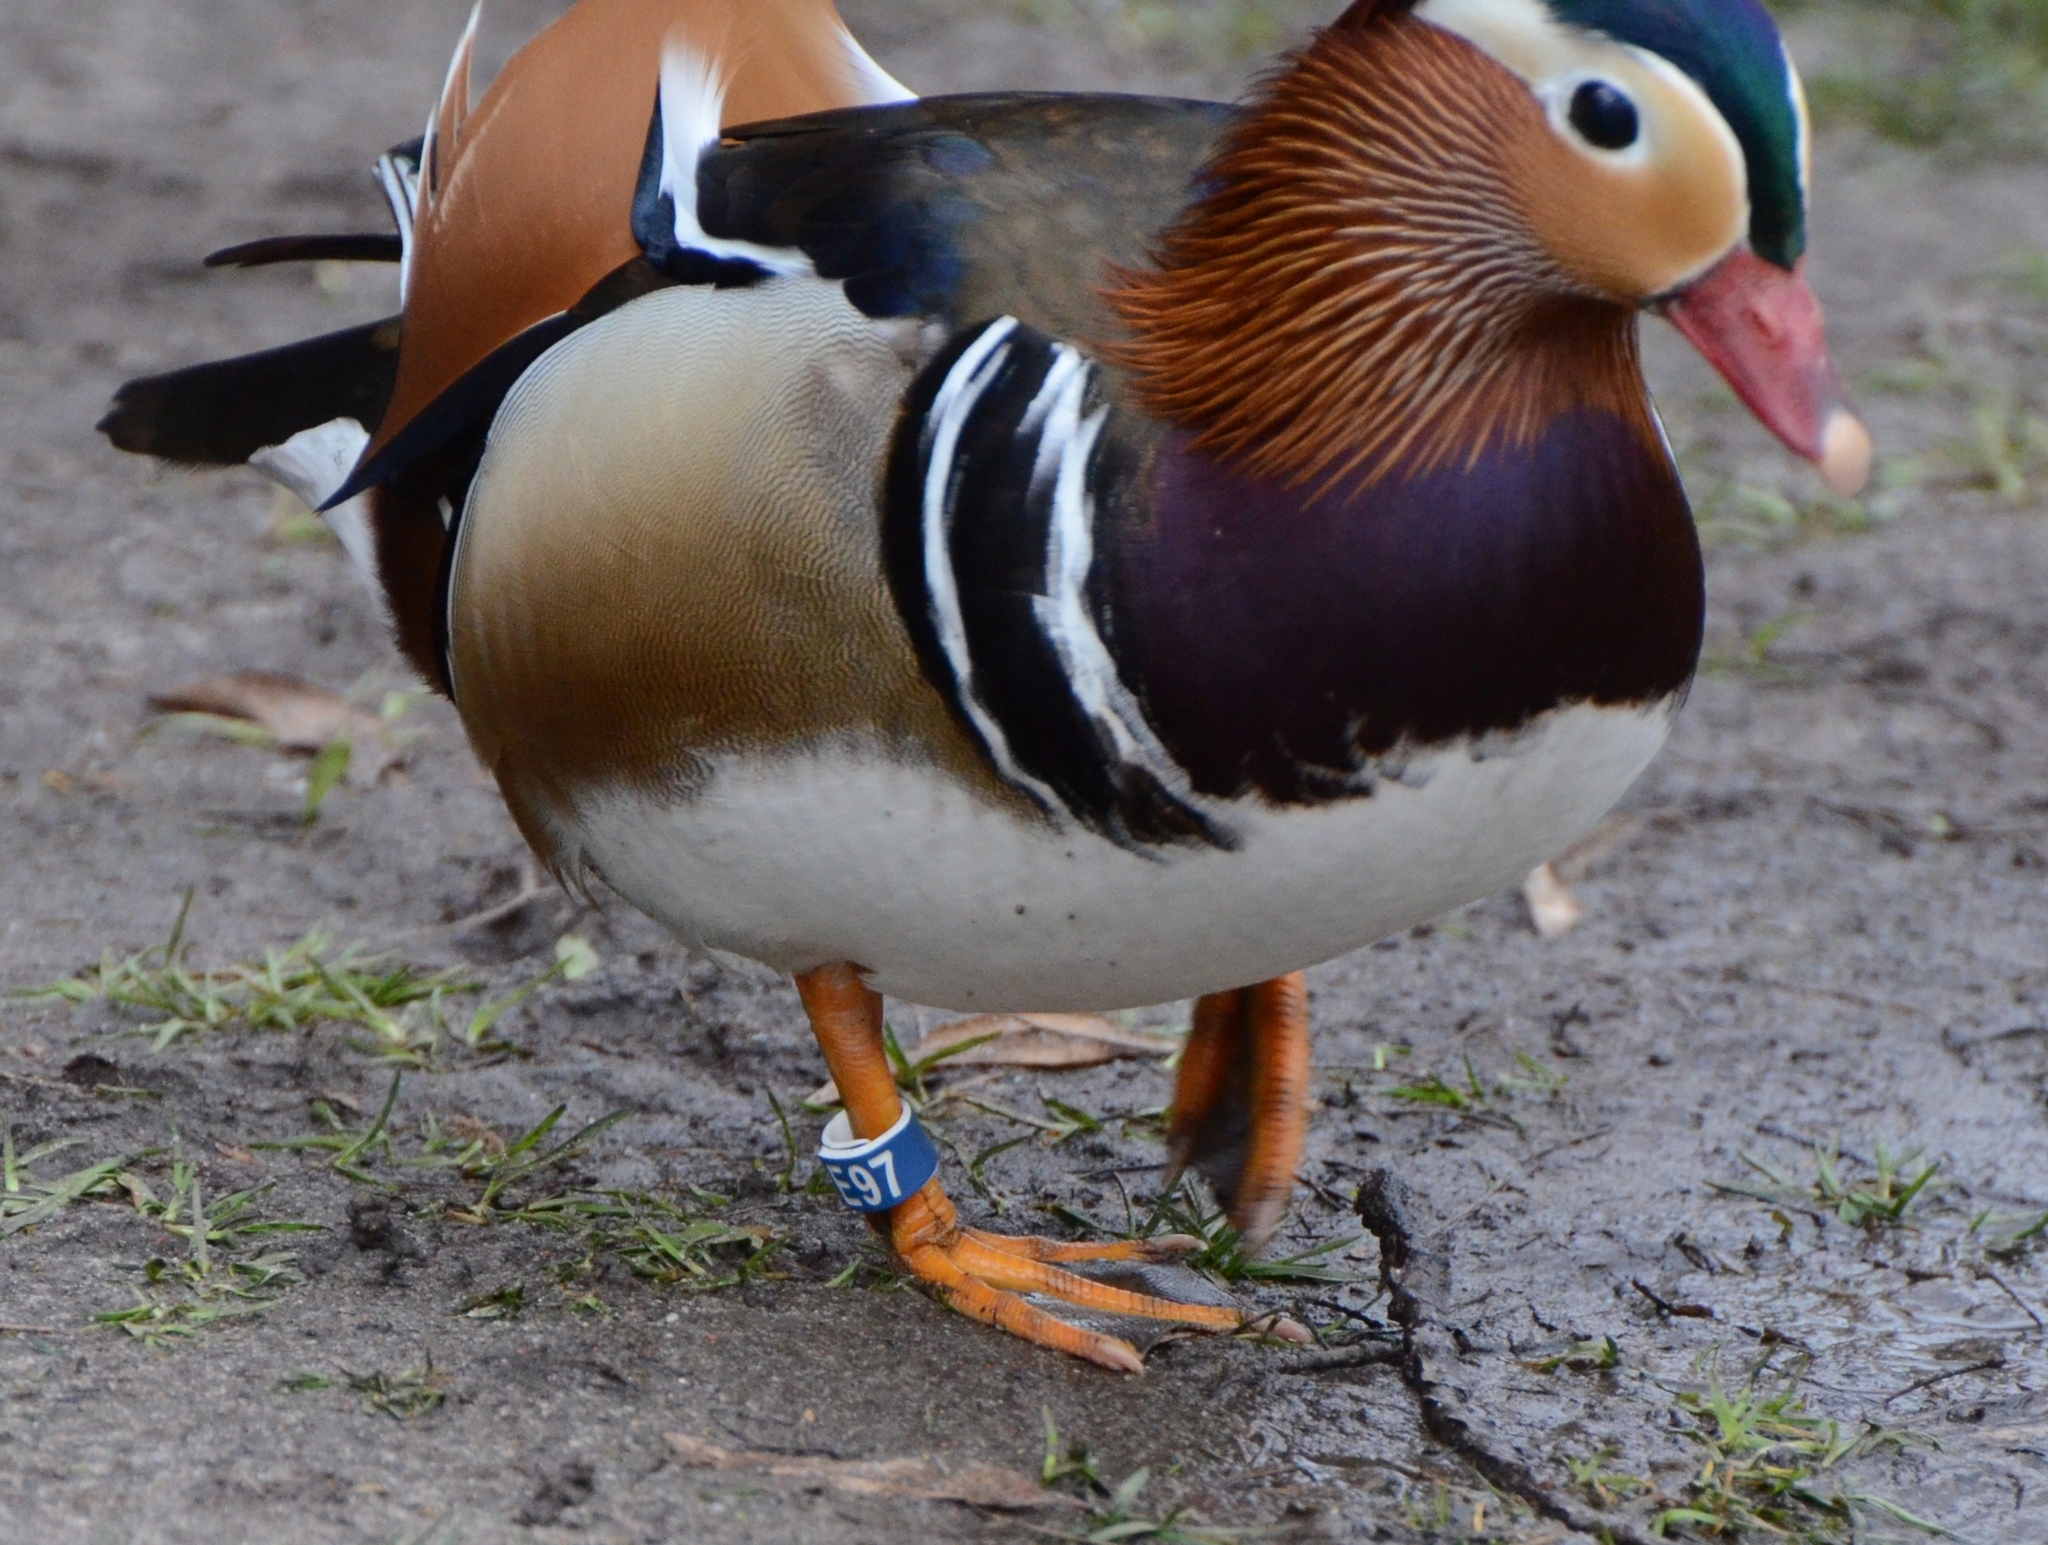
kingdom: Animalia
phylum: Chordata
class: Aves
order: Anseriformes
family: Anatidae
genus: Aix
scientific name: Aix galericulata
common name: Mandarin duck
